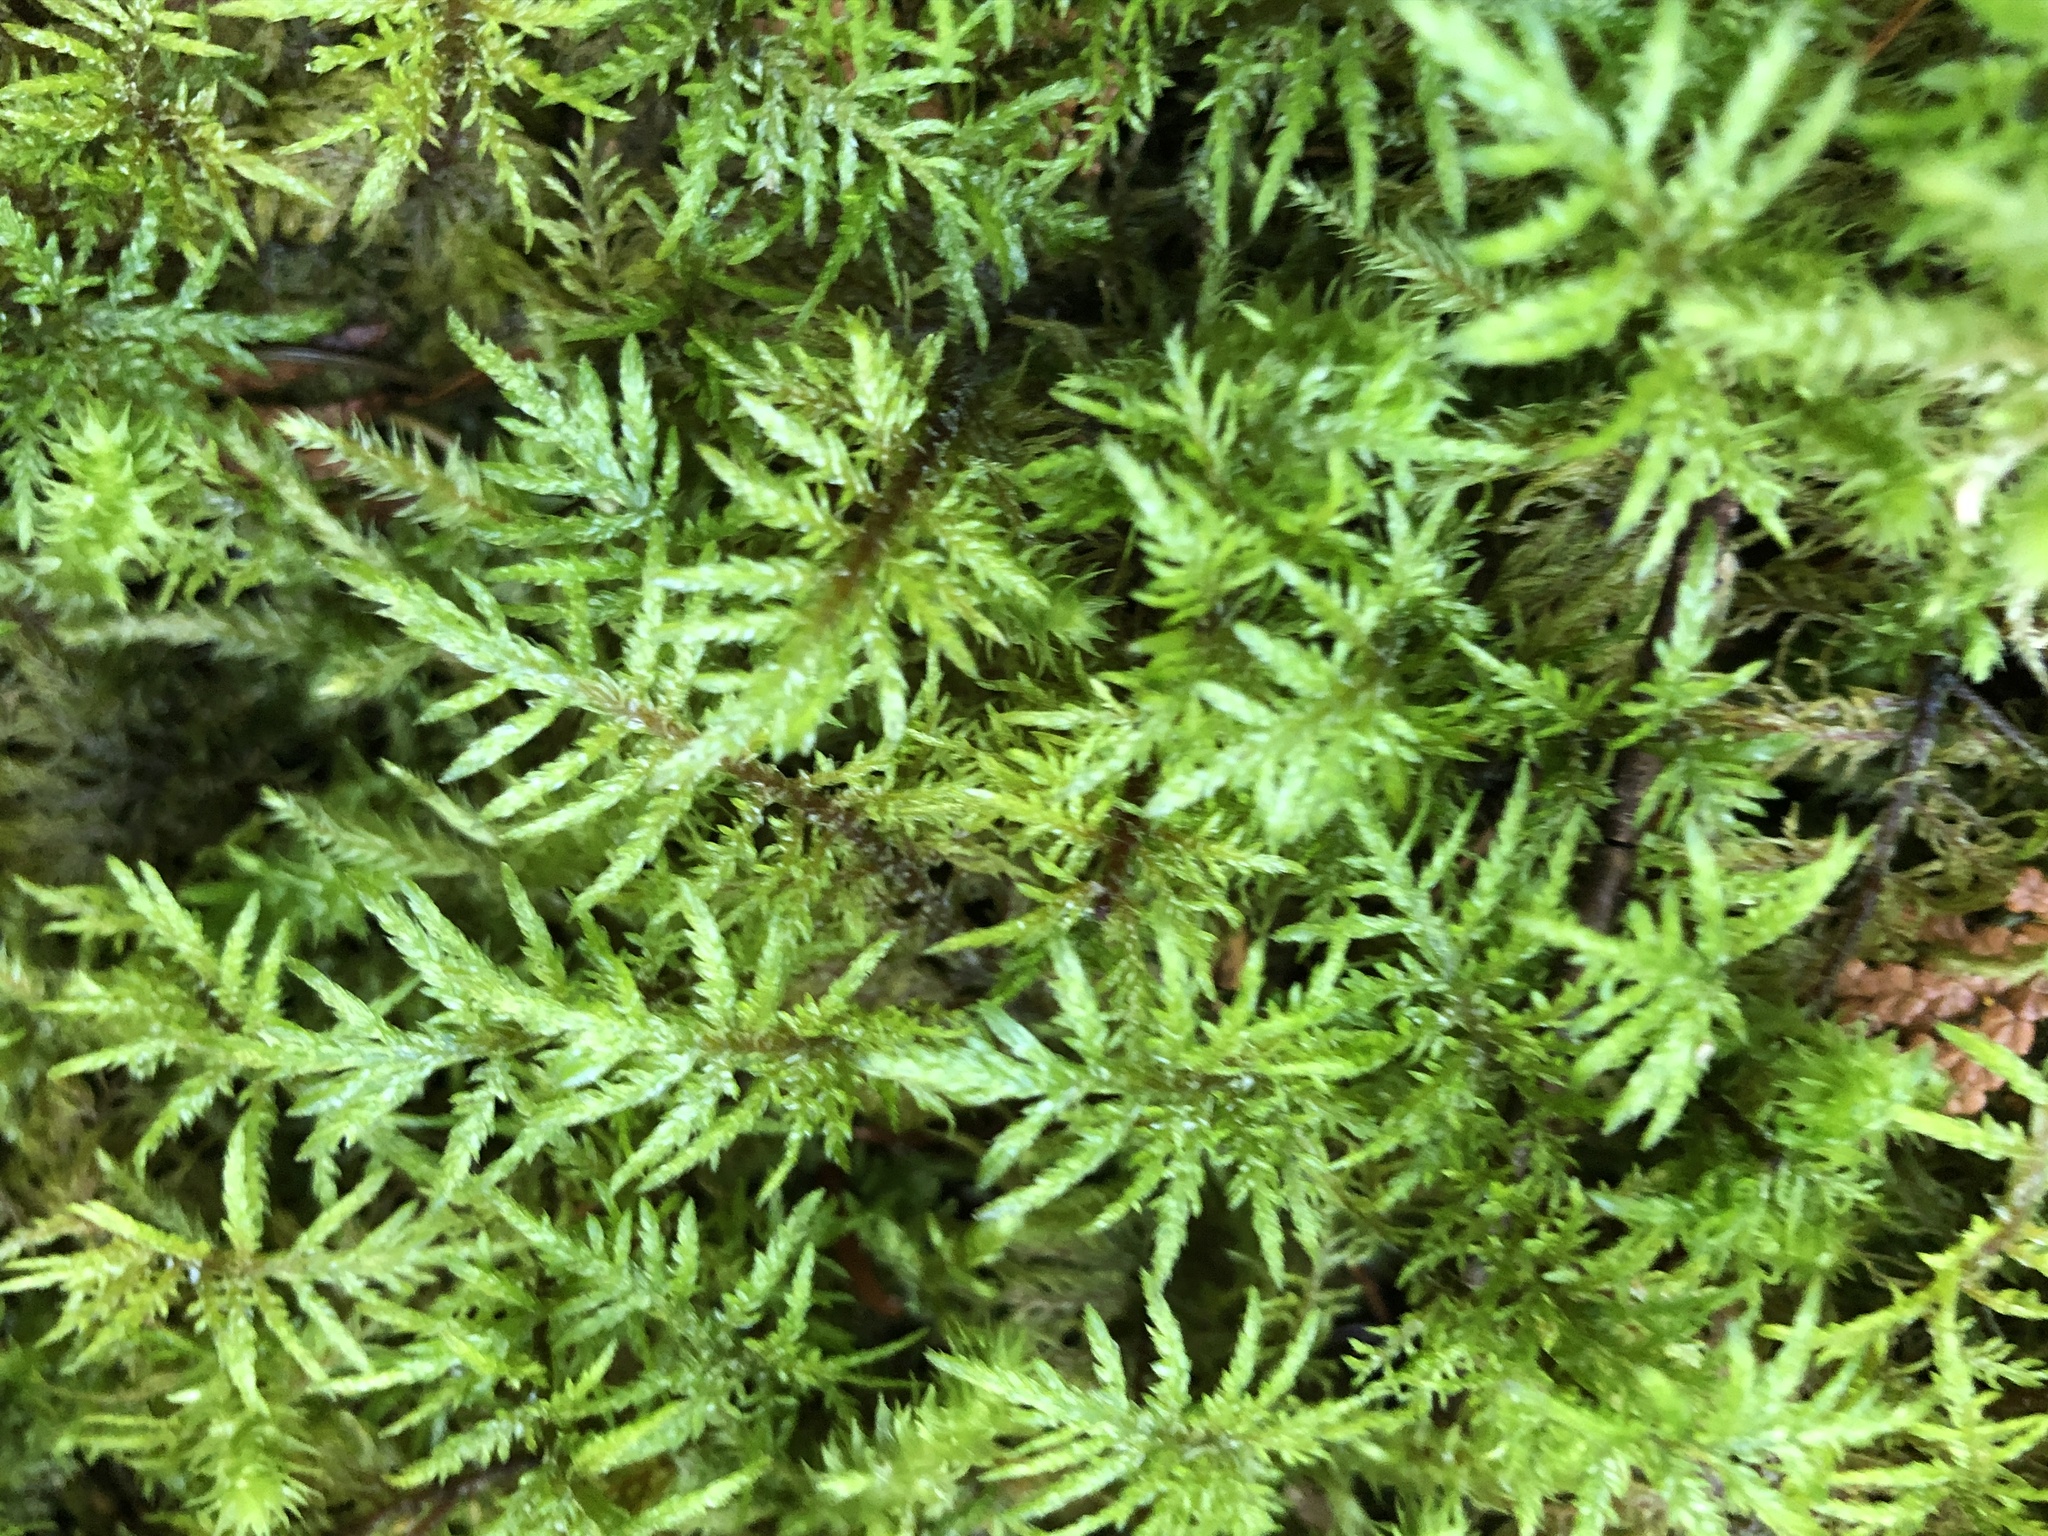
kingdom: Plantae
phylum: Bryophyta
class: Bryopsida
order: Hypnales
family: Hylocomiaceae
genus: Hylocomium
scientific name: Hylocomium splendens
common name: Stairstep moss
